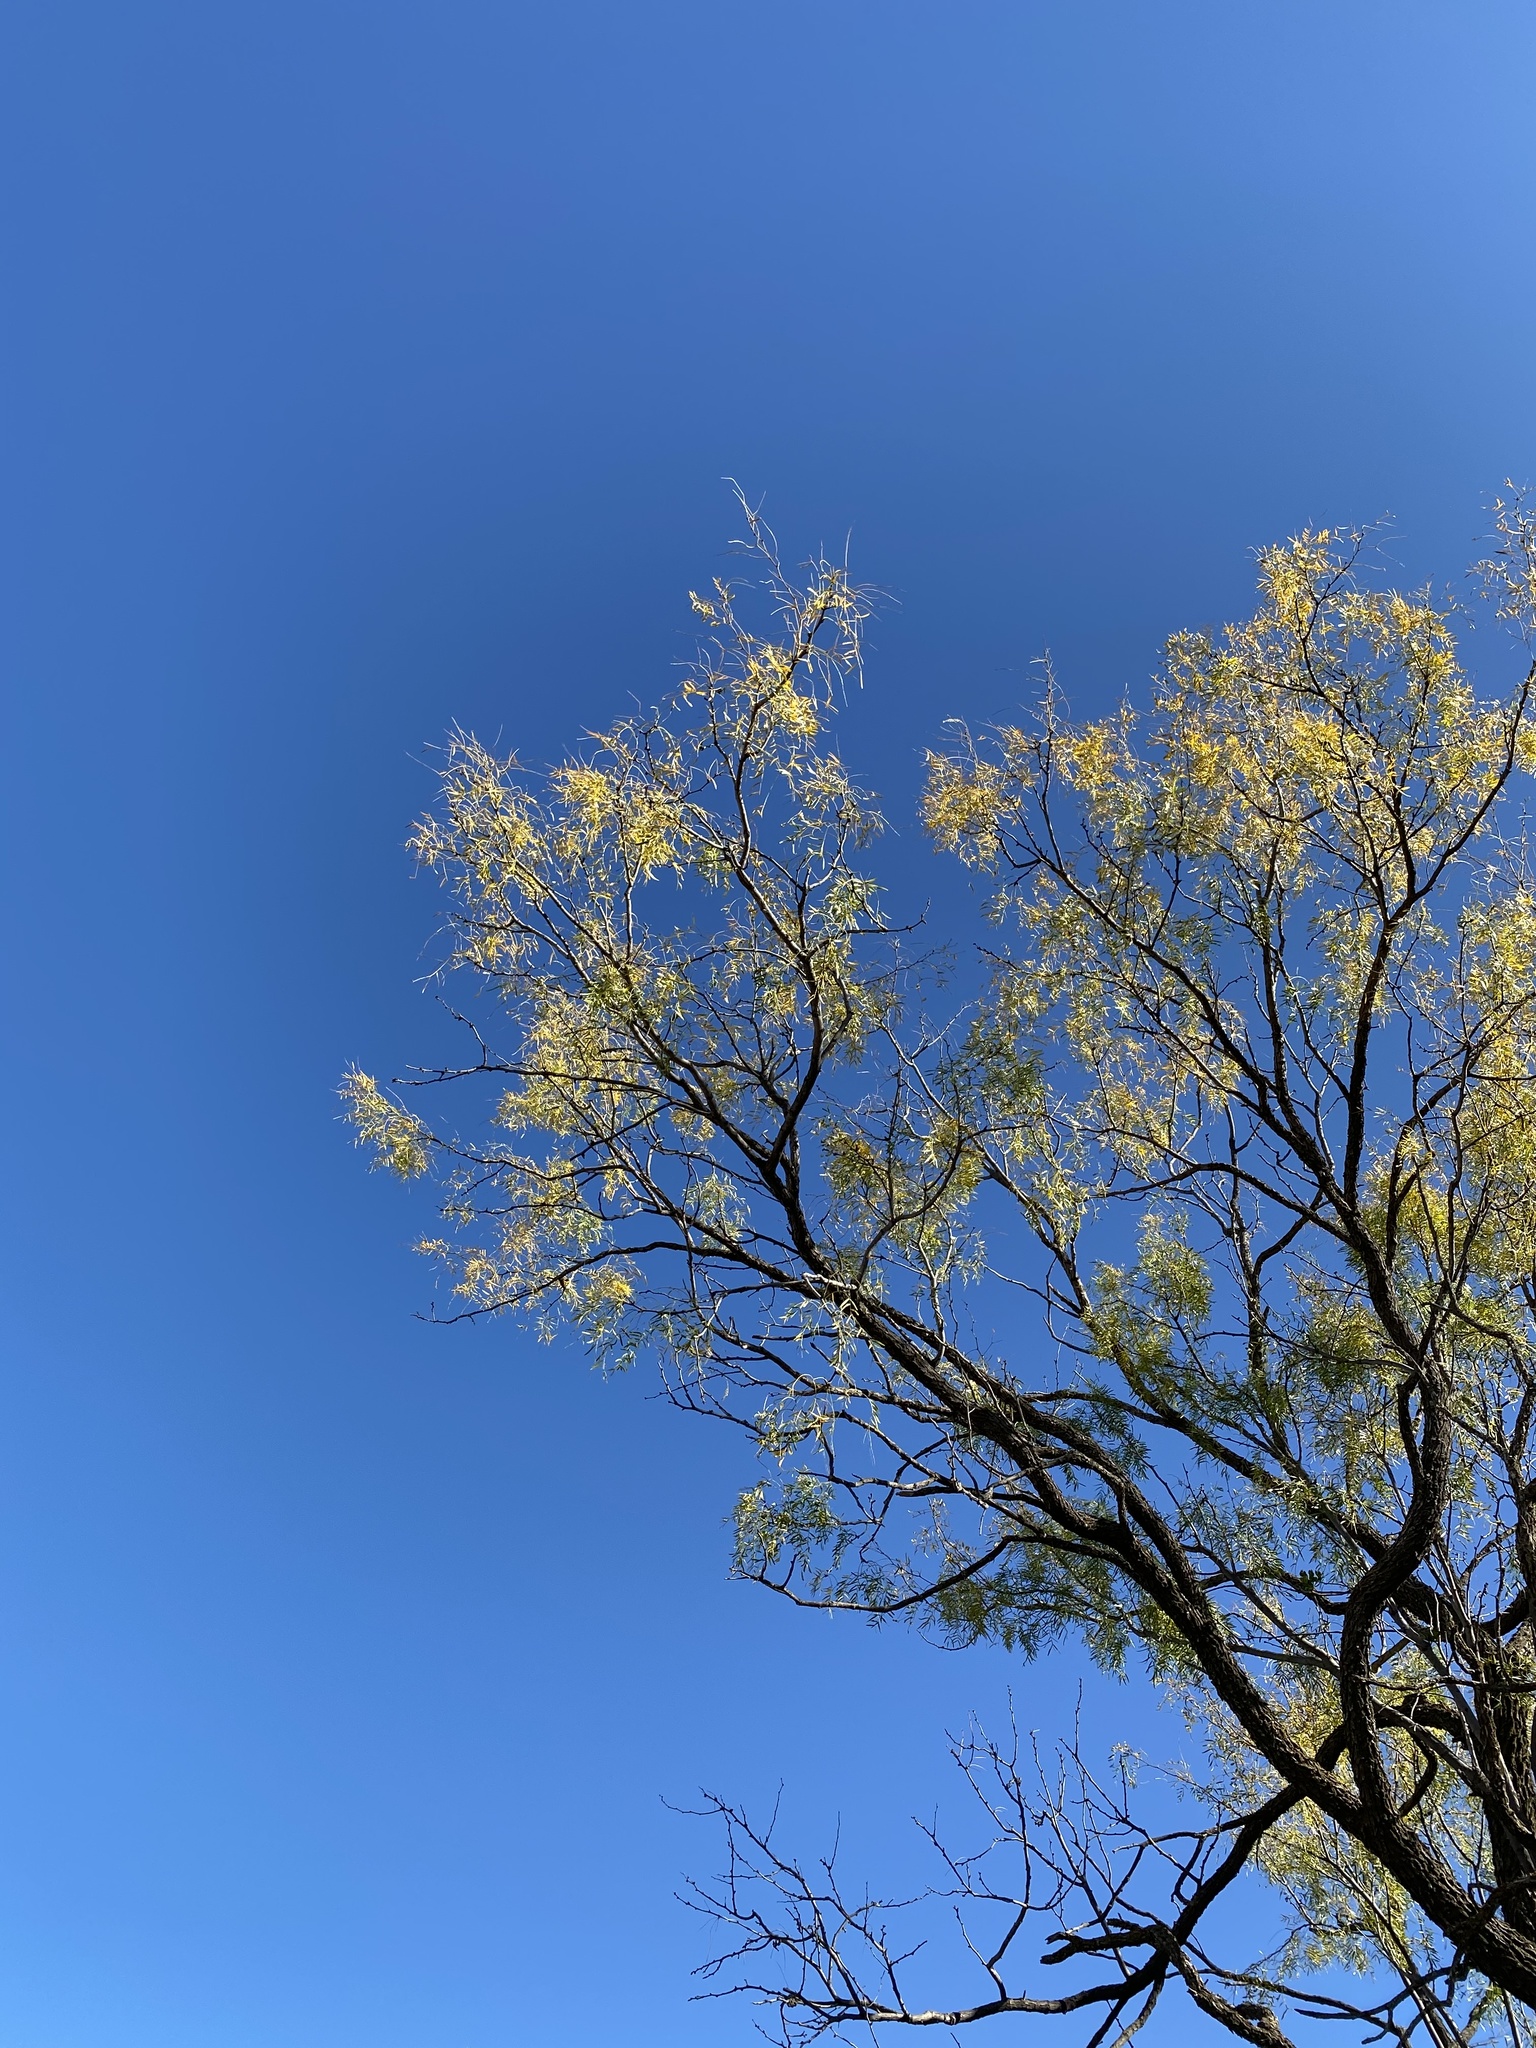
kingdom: Plantae
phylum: Tracheophyta
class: Magnoliopsida
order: Fabales
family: Fabaceae
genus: Prosopis
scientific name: Prosopis glandulosa
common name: Honey mesquite
